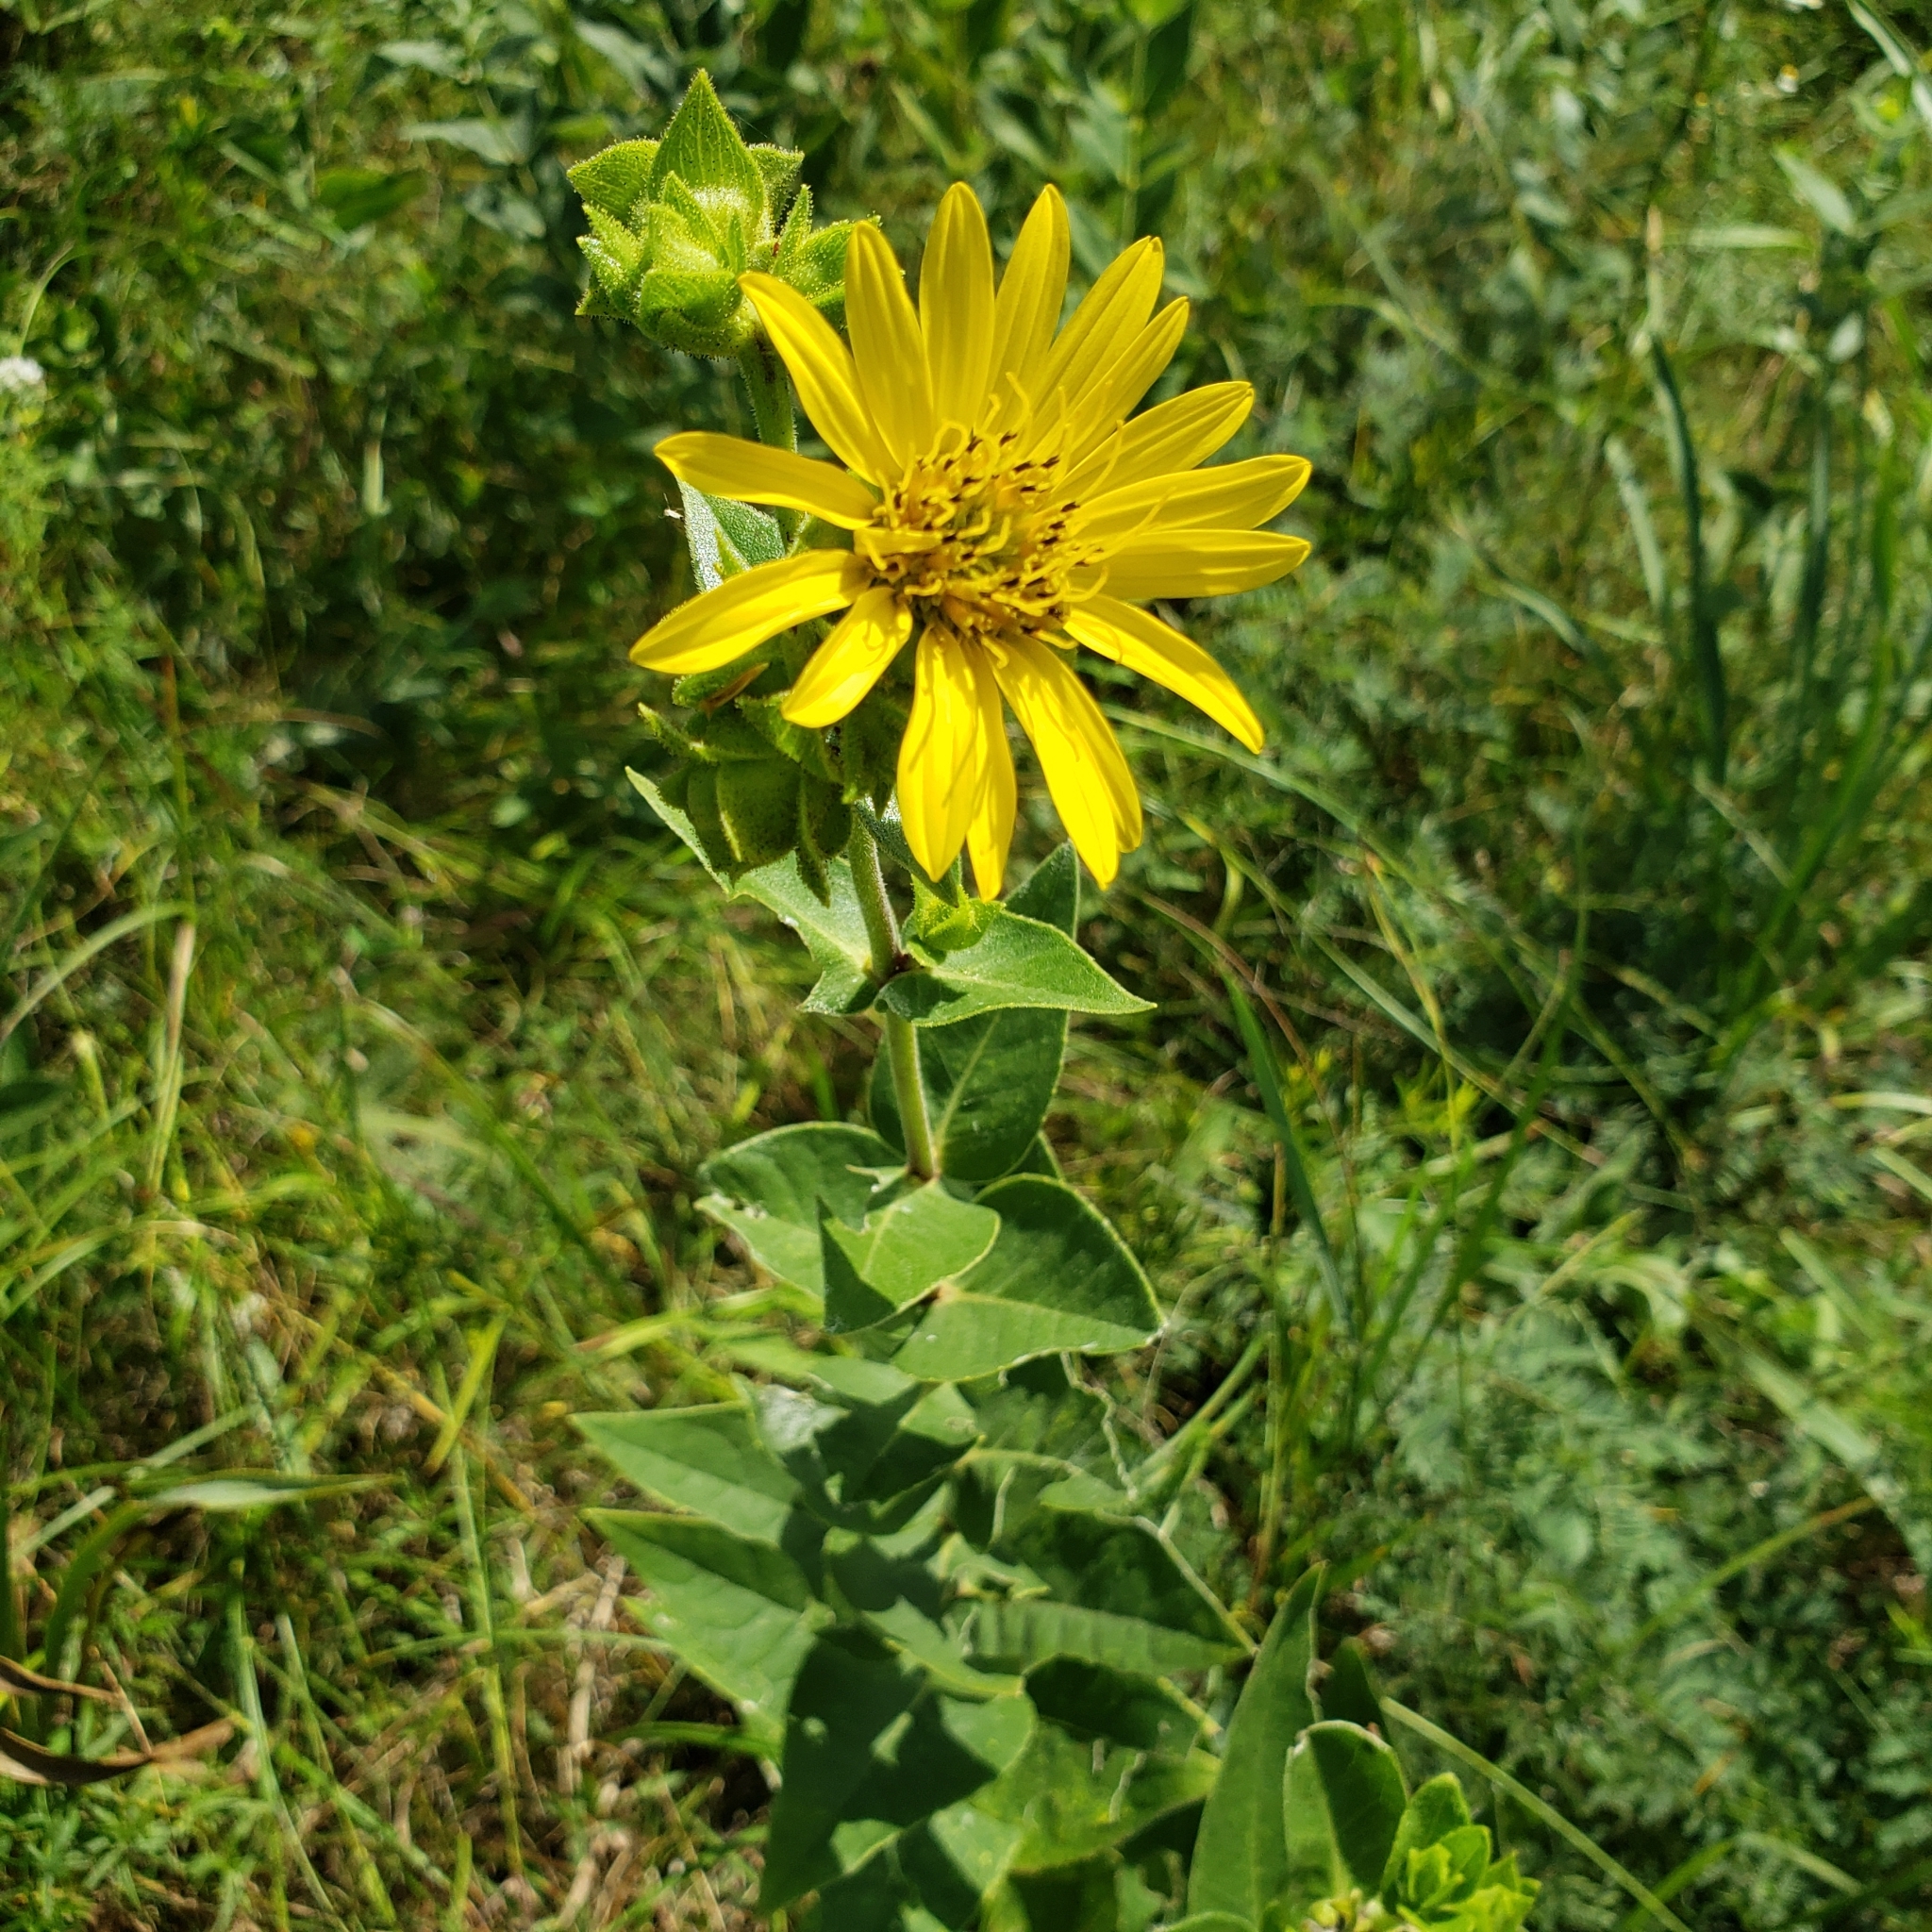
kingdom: Plantae
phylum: Tracheophyta
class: Magnoliopsida
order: Asterales
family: Asteraceae
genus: Silphium
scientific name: Silphium integrifolium
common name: Whole-leaf rosinweed
